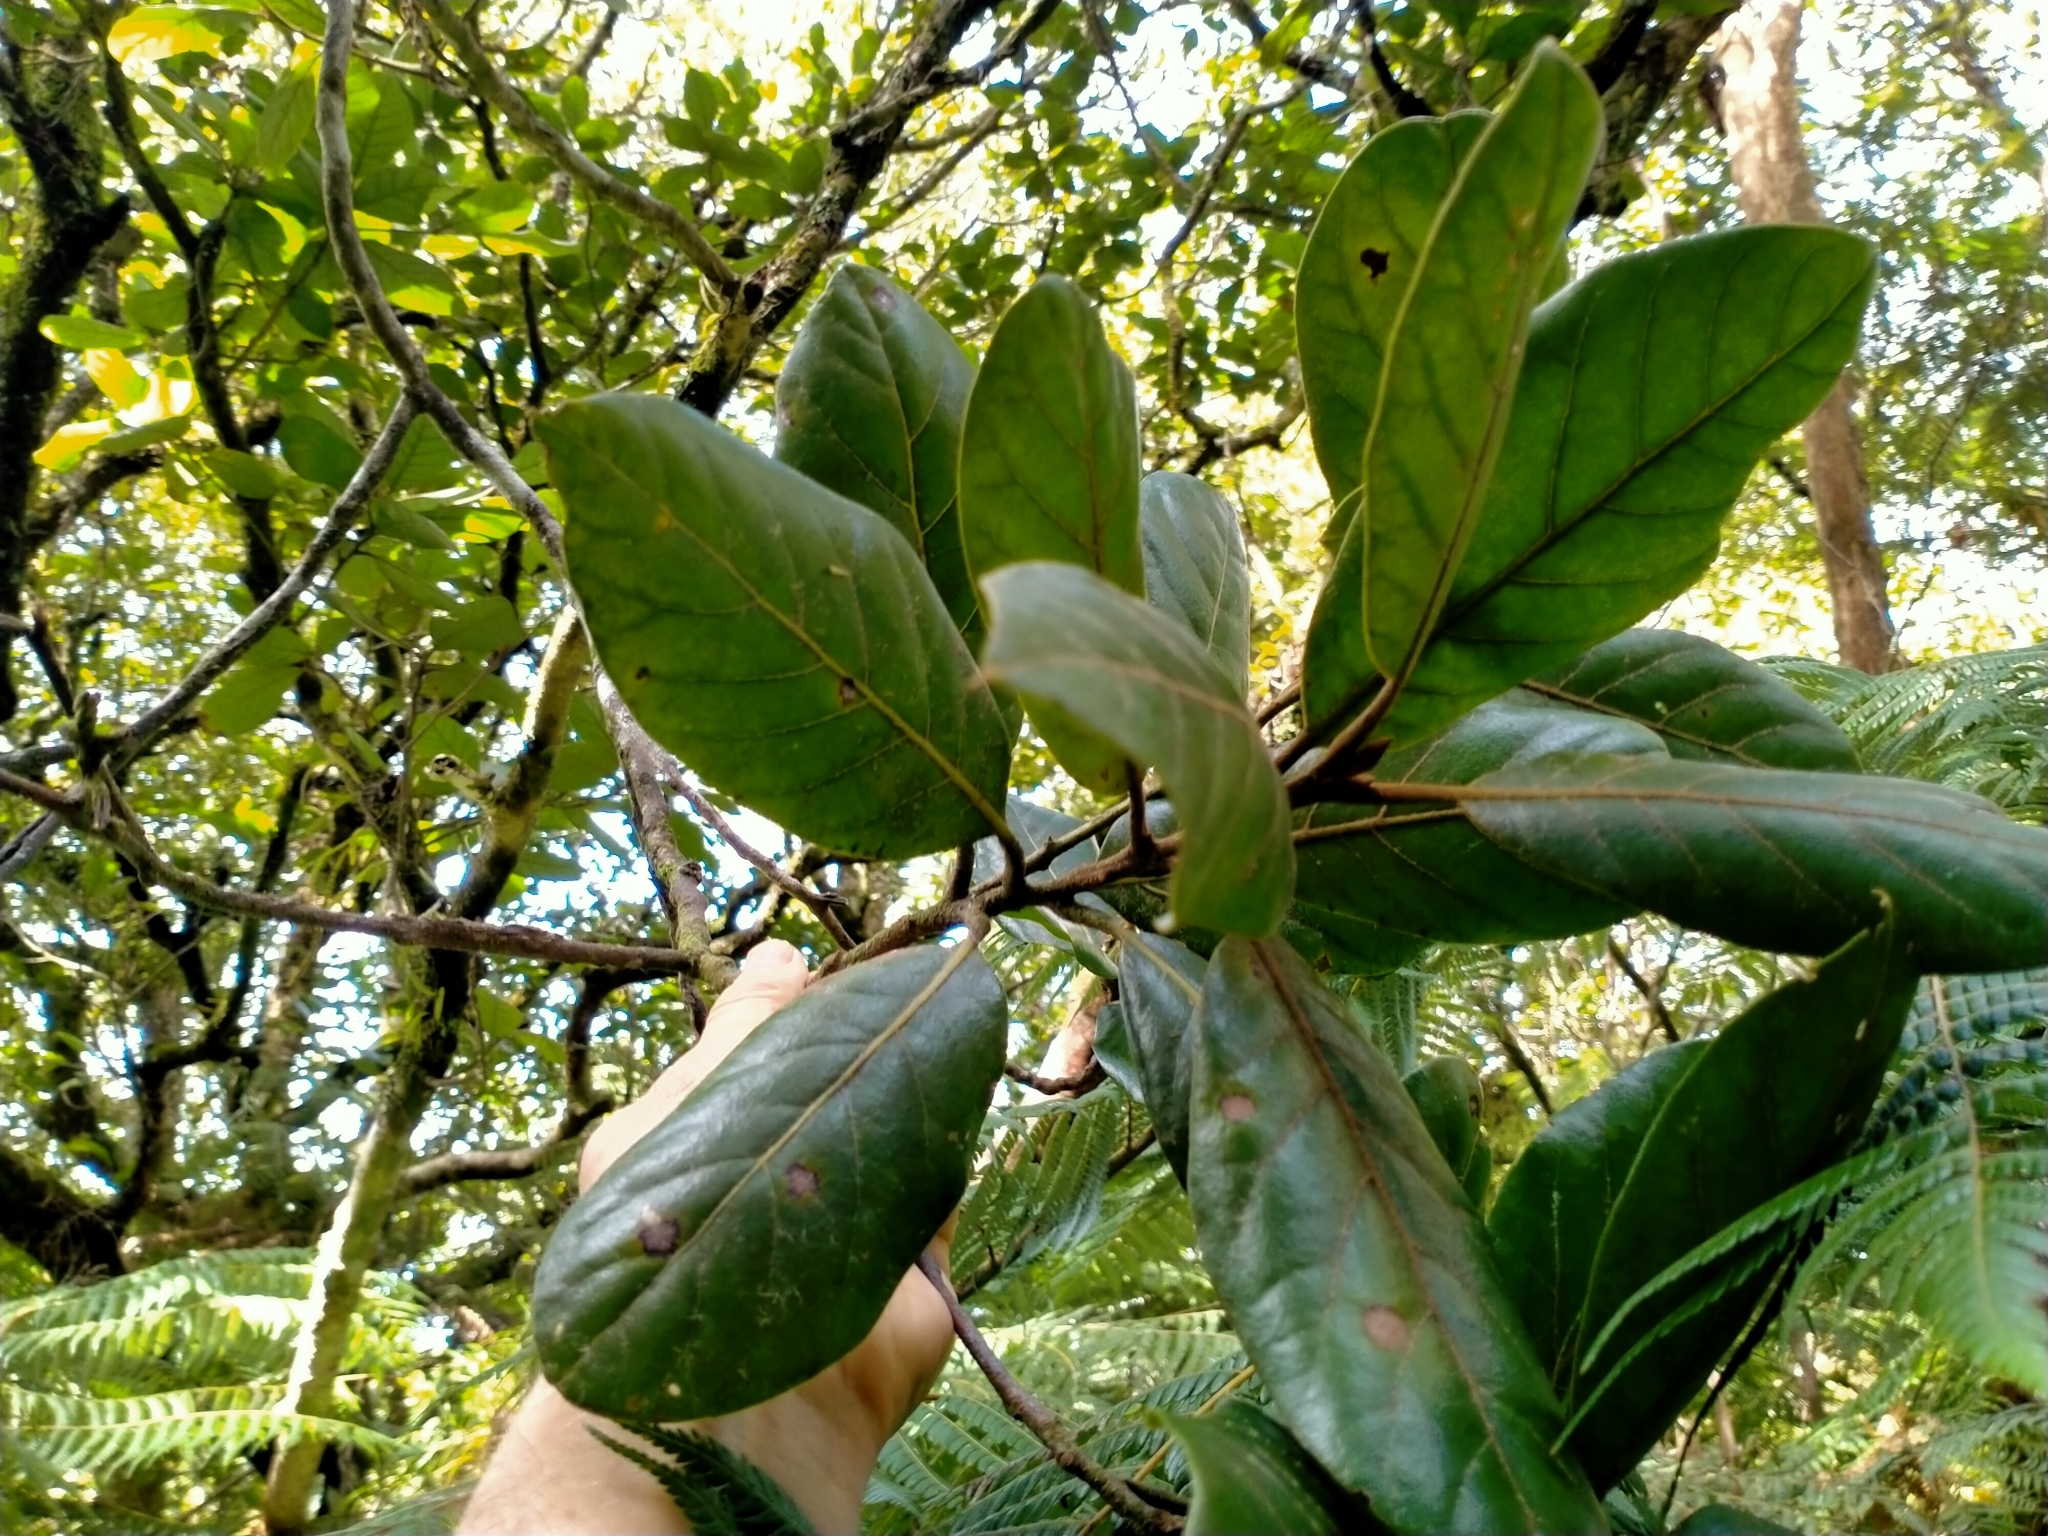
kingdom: Plantae
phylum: Tracheophyta
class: Magnoliopsida
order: Laurales
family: Lauraceae
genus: Beilschmiedia
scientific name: Beilschmiedia tarairi
